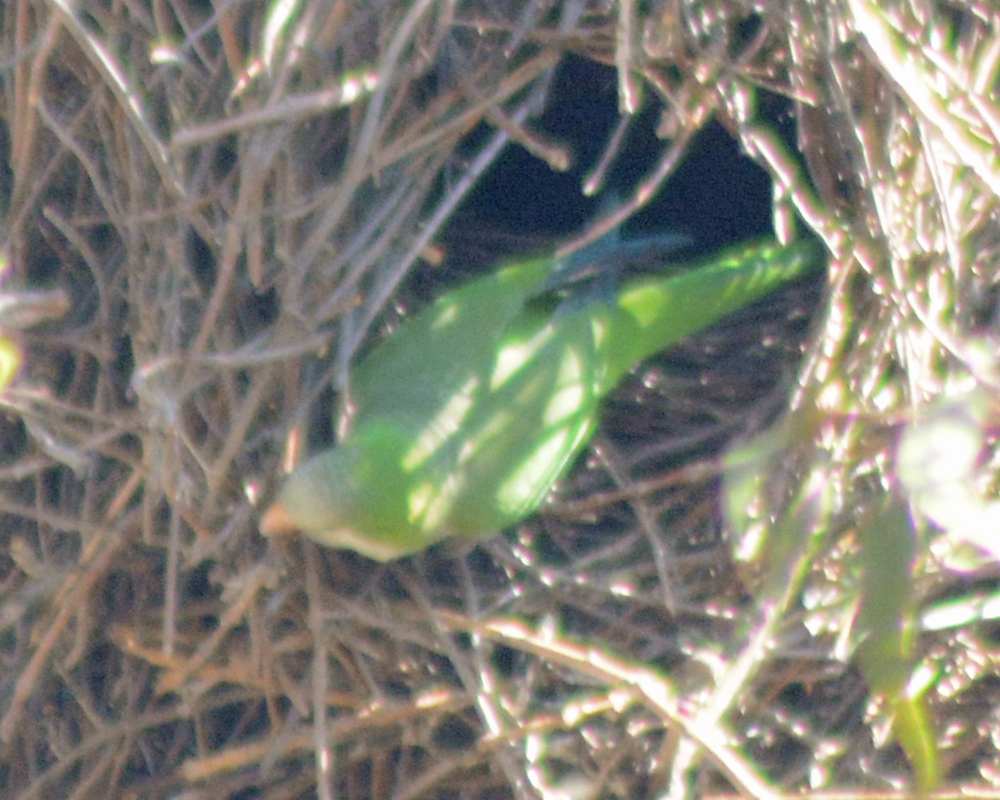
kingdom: Animalia
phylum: Chordata
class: Aves
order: Psittaciformes
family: Psittacidae
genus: Myiopsitta
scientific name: Myiopsitta monachus
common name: Monk parakeet
